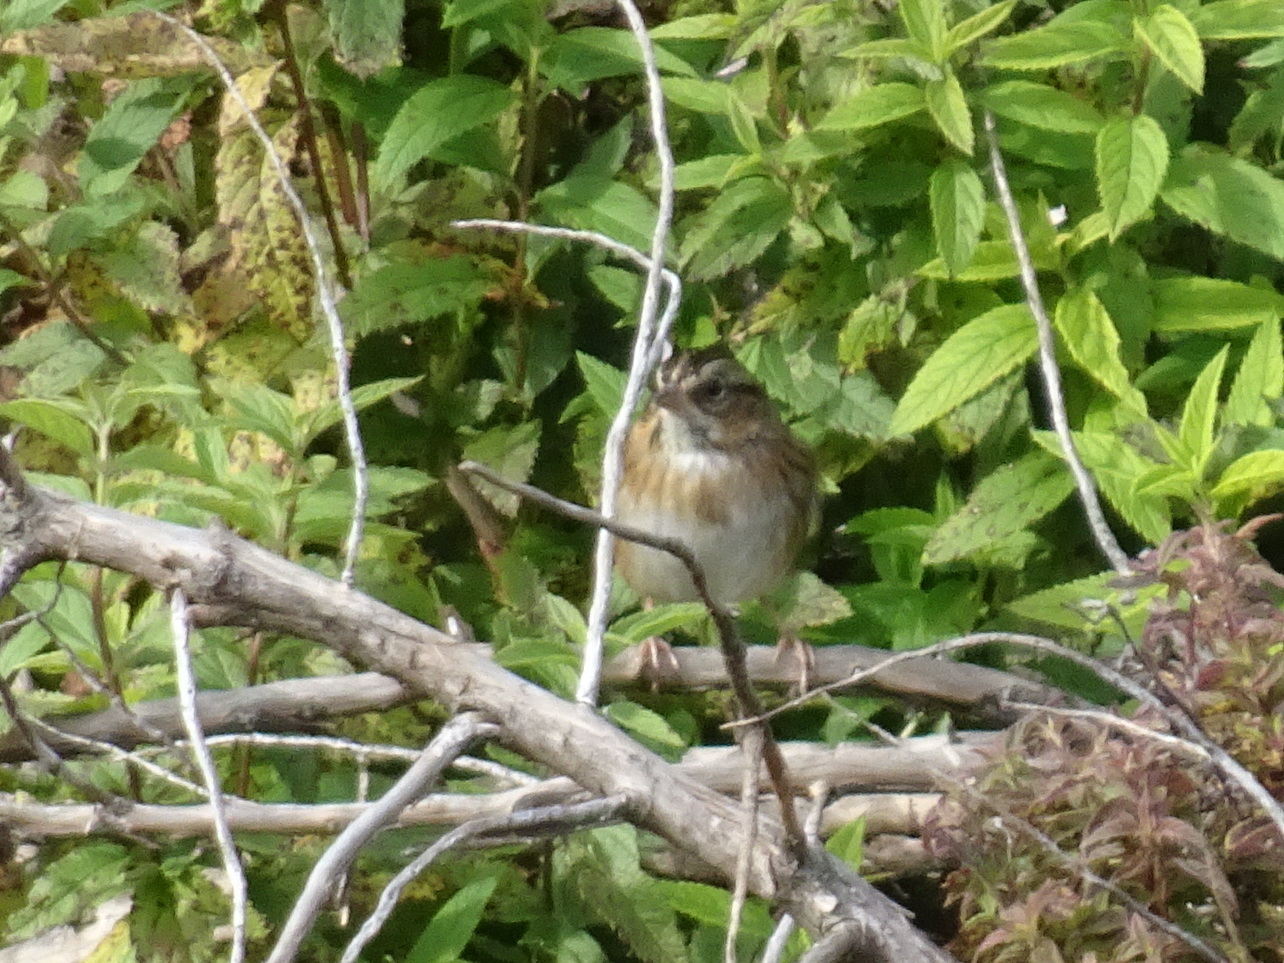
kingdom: Animalia
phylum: Chordata
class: Aves
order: Passeriformes
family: Passerellidae
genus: Melospiza
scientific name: Melospiza georgiana
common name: Swamp sparrow
